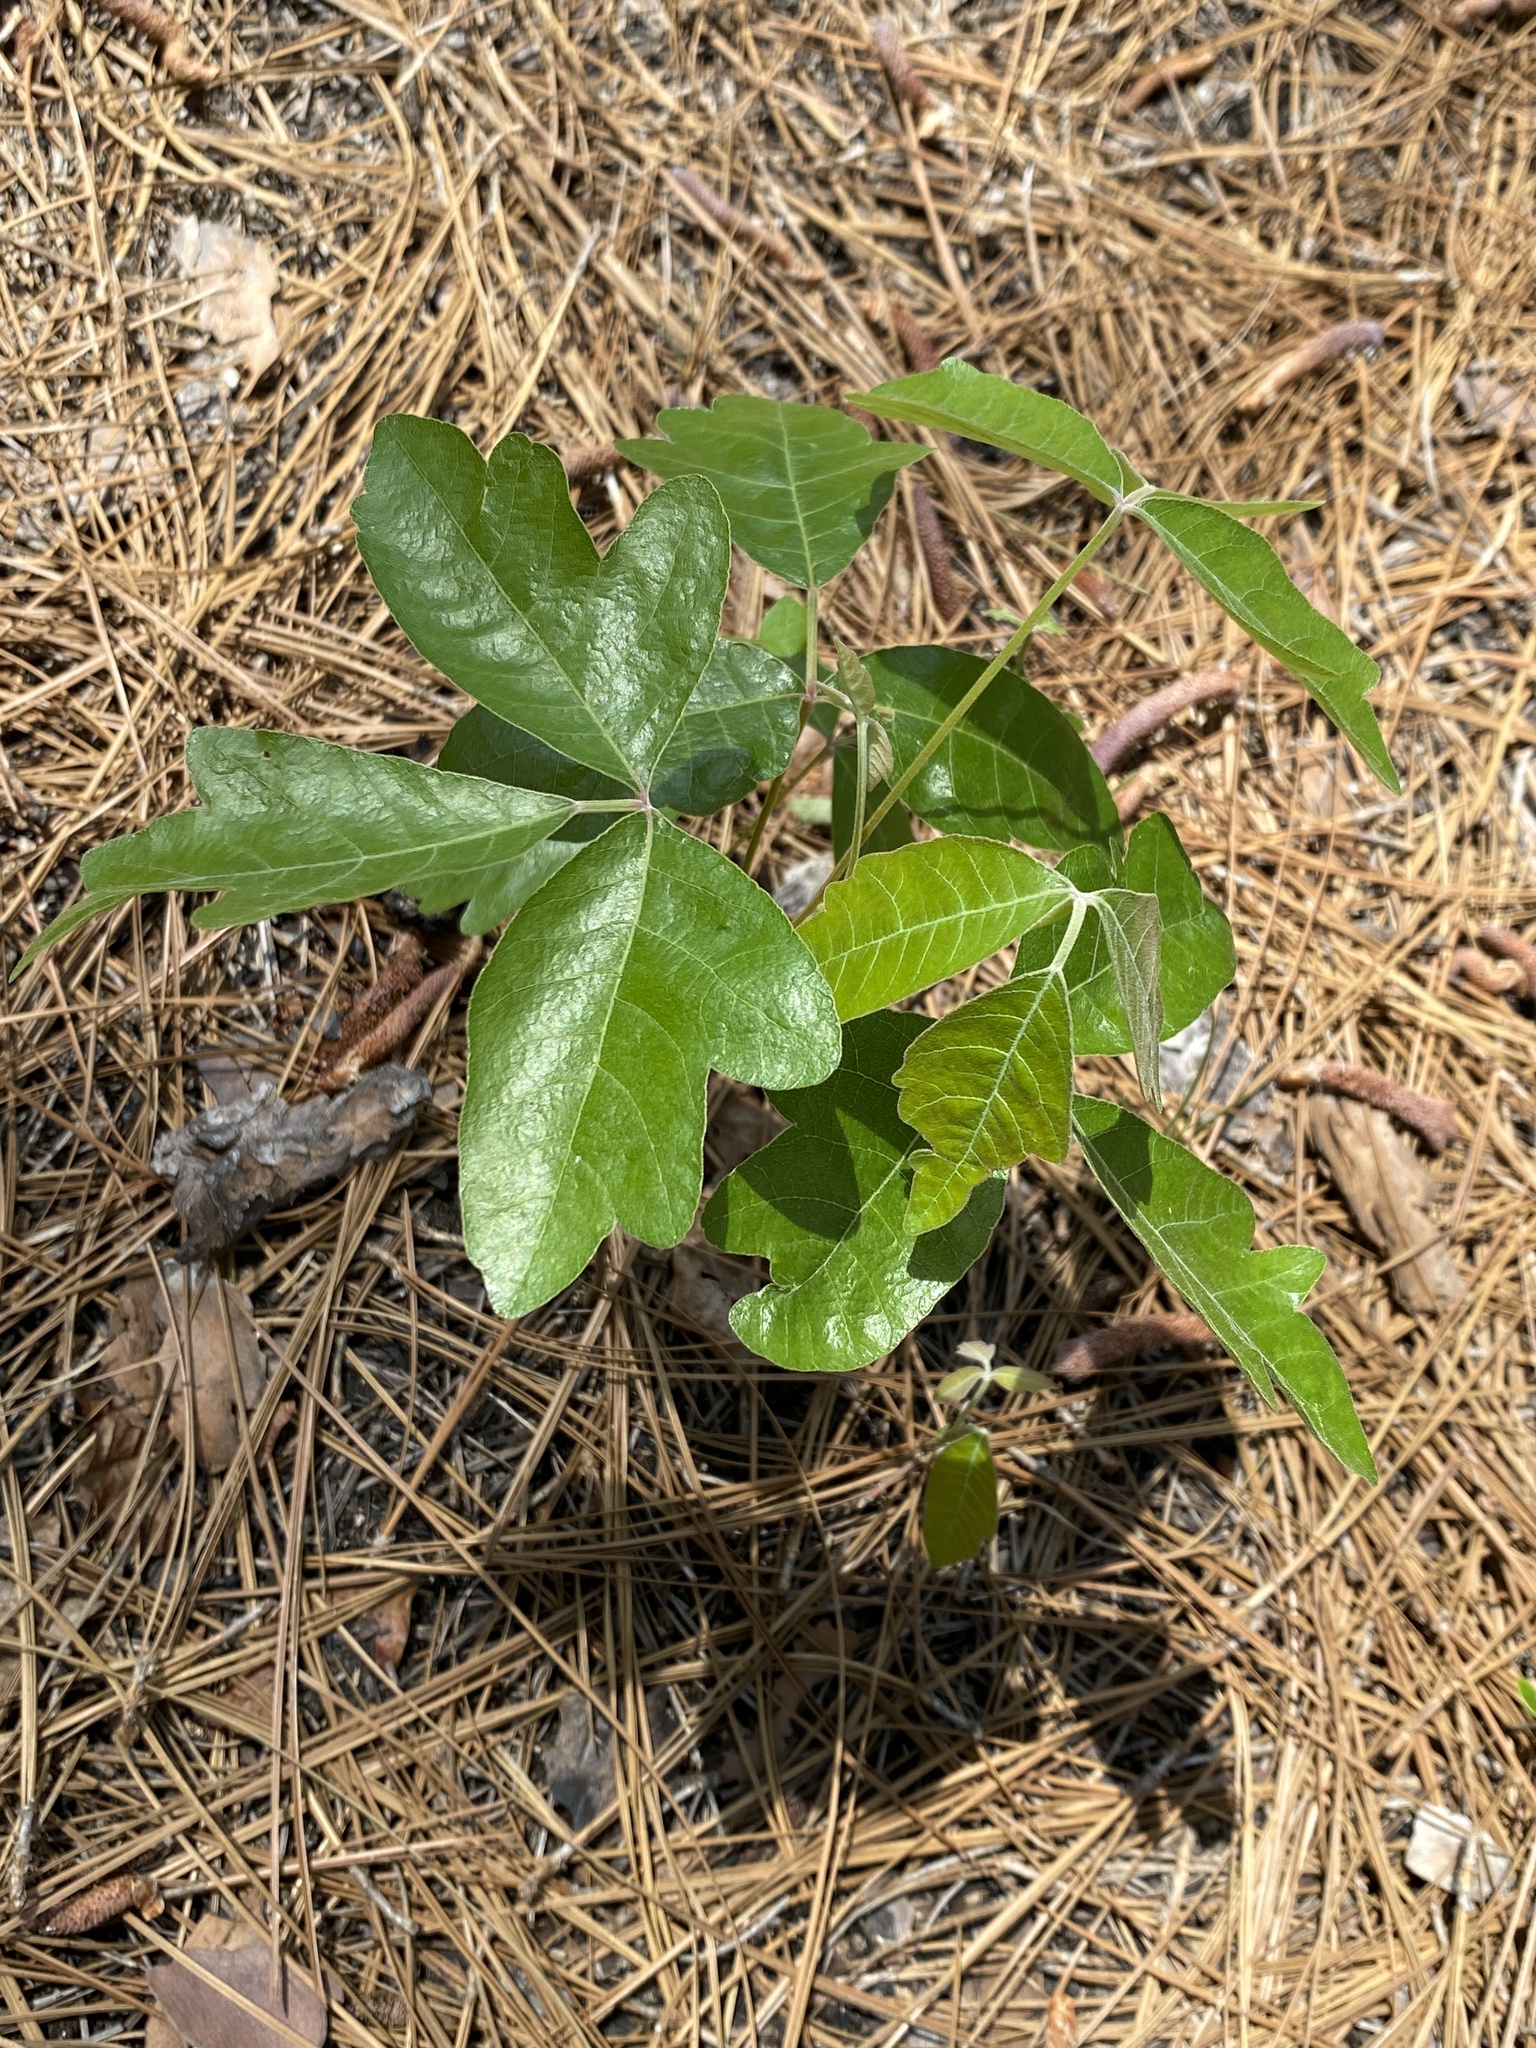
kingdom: Plantae
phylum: Tracheophyta
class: Magnoliopsida
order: Sapindales
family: Anacardiaceae
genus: Toxicodendron
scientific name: Toxicodendron pubescens
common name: Eastern poison-oak
